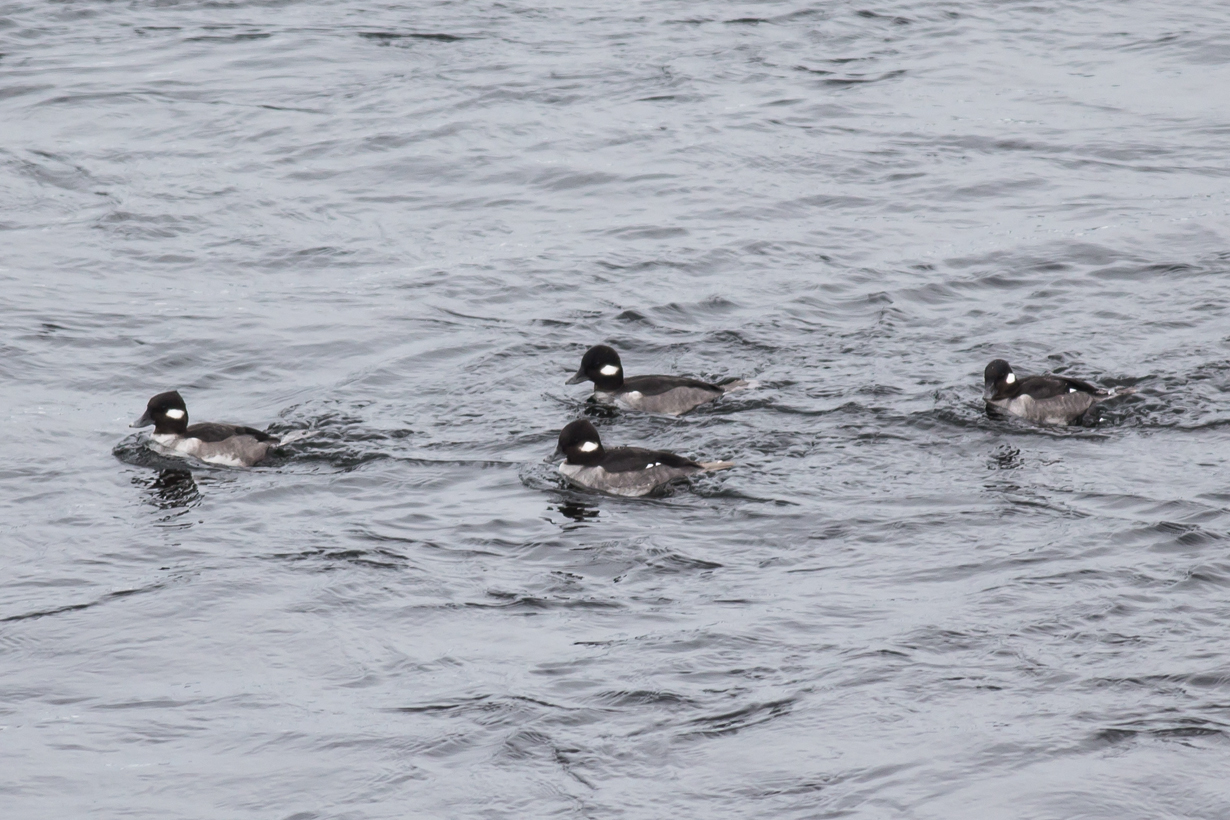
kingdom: Animalia
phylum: Chordata
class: Aves
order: Anseriformes
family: Anatidae
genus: Bucephala
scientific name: Bucephala albeola
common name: Bufflehead
